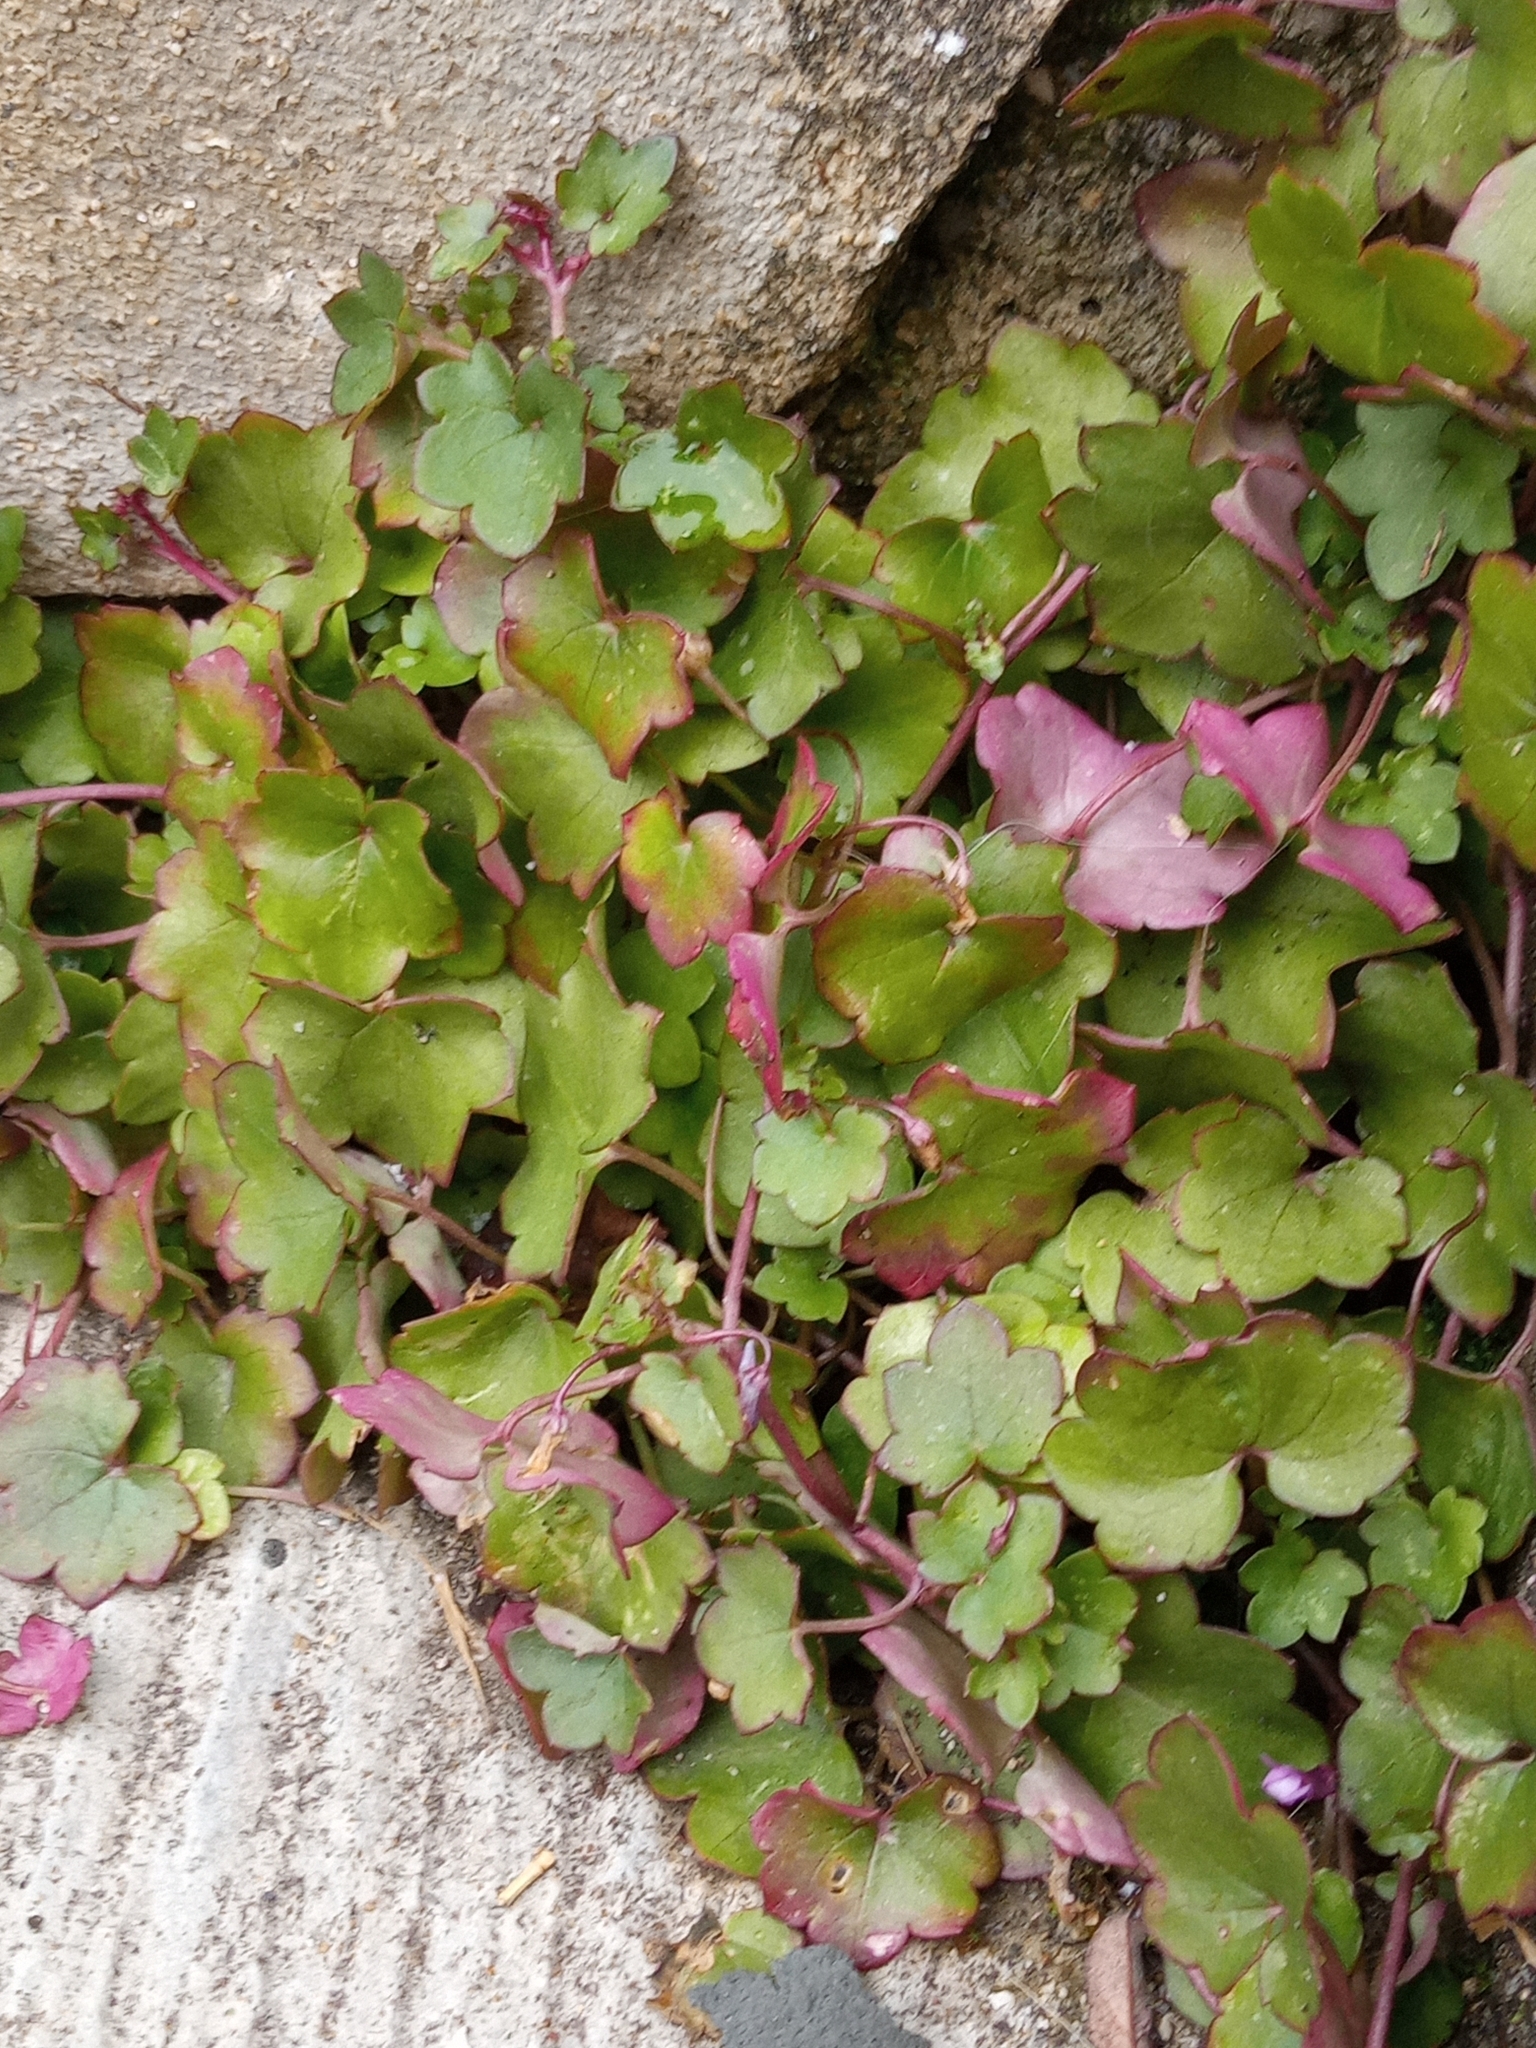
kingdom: Plantae
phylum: Tracheophyta
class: Magnoliopsida
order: Lamiales
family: Plantaginaceae
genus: Cymbalaria
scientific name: Cymbalaria muralis
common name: Ivy-leaved toadflax
